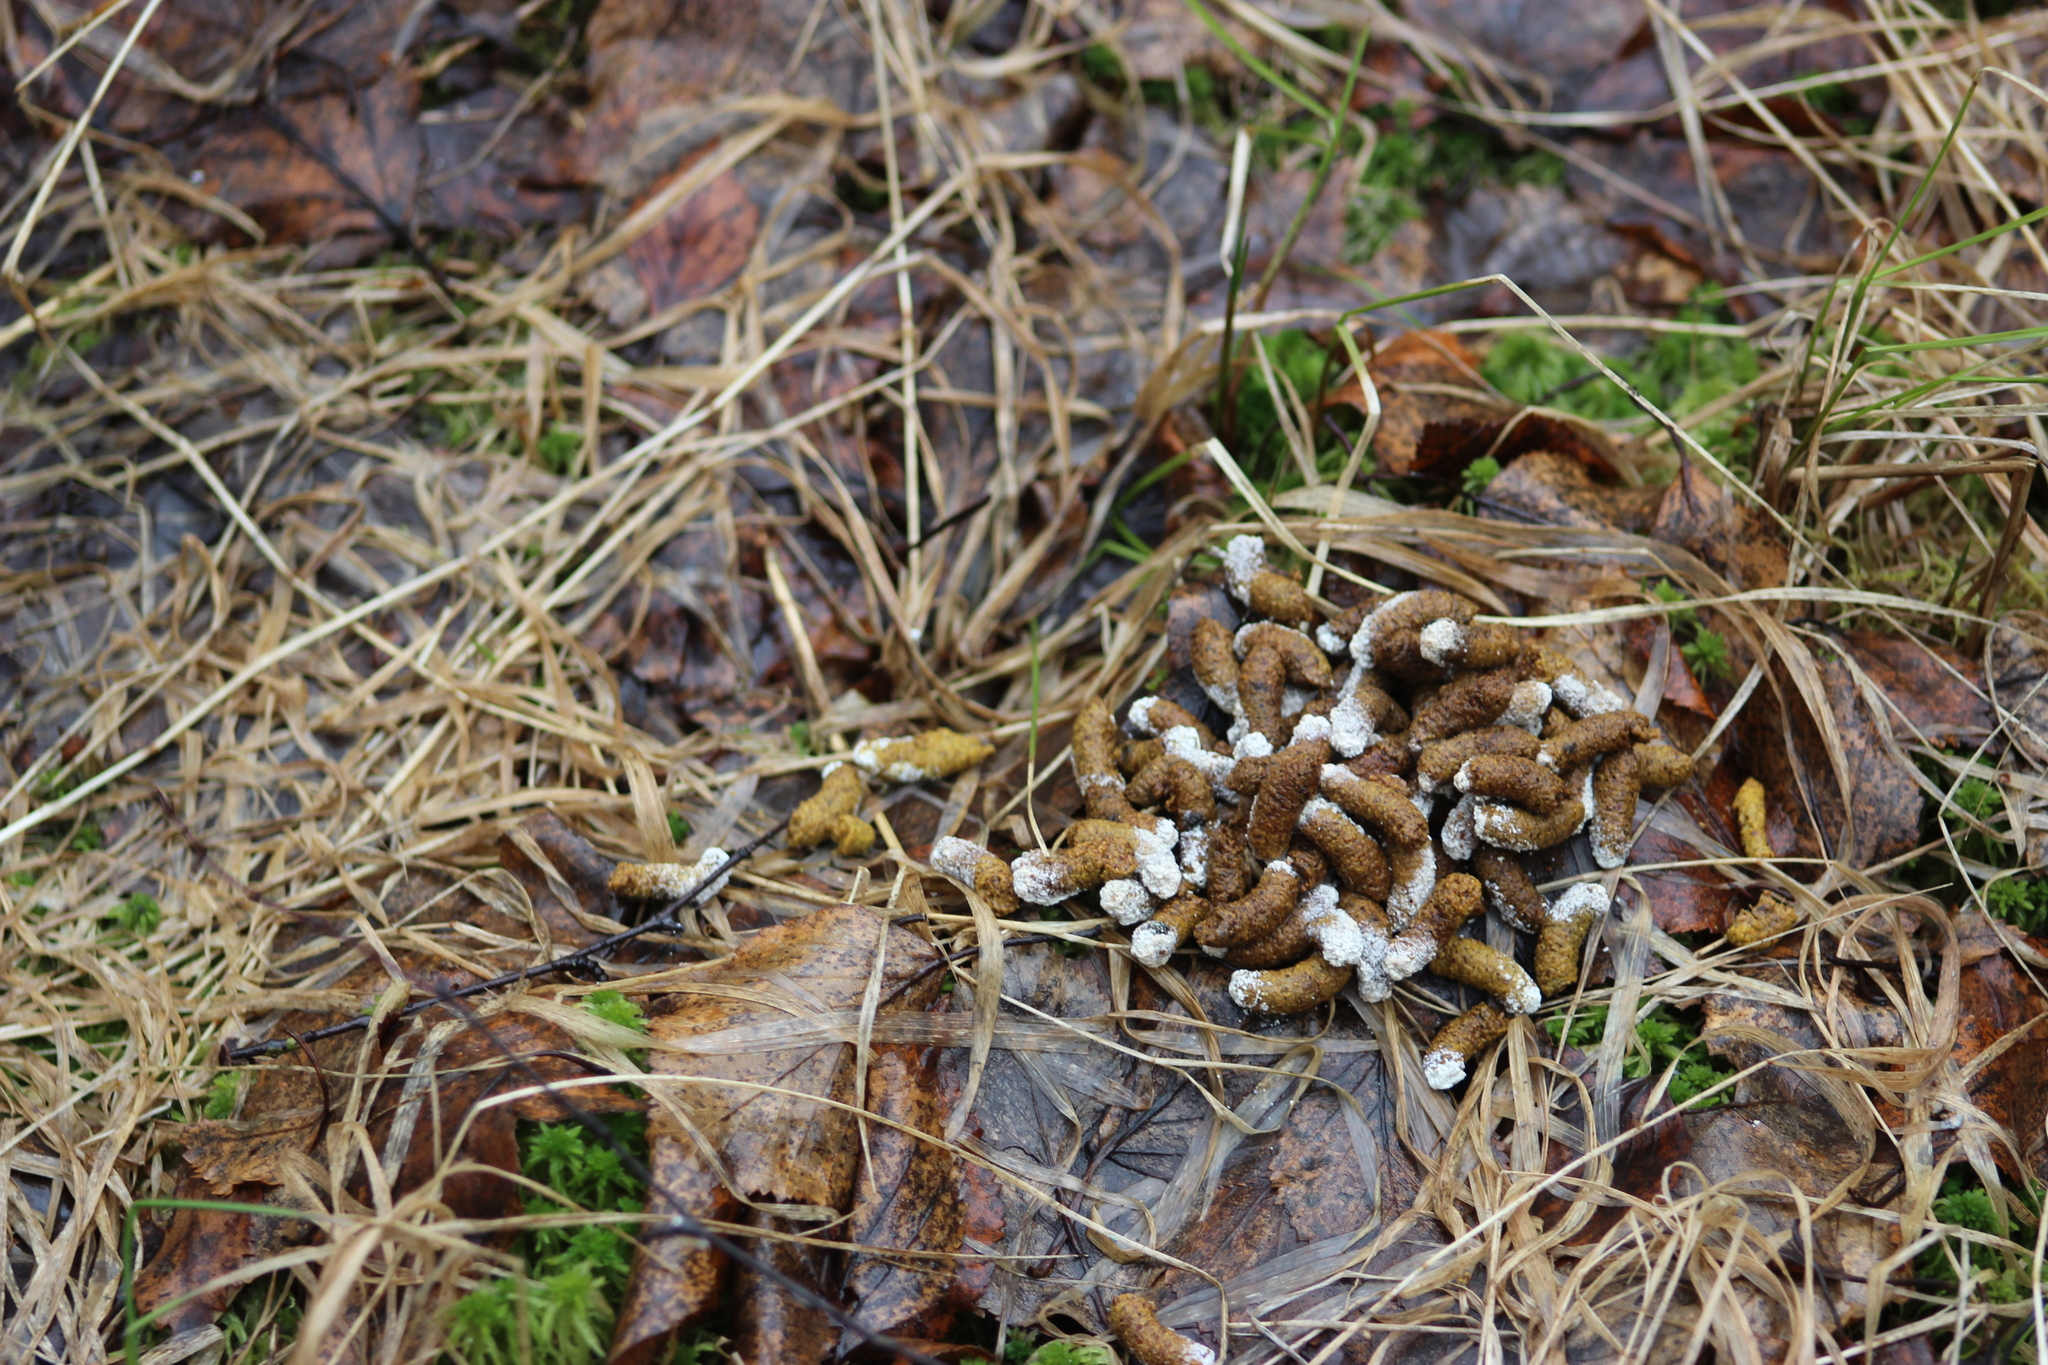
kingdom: Animalia
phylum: Chordata
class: Aves
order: Galliformes
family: Phasianidae
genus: Tetrastes
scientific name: Tetrastes bonasia
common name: Hazel grouse
